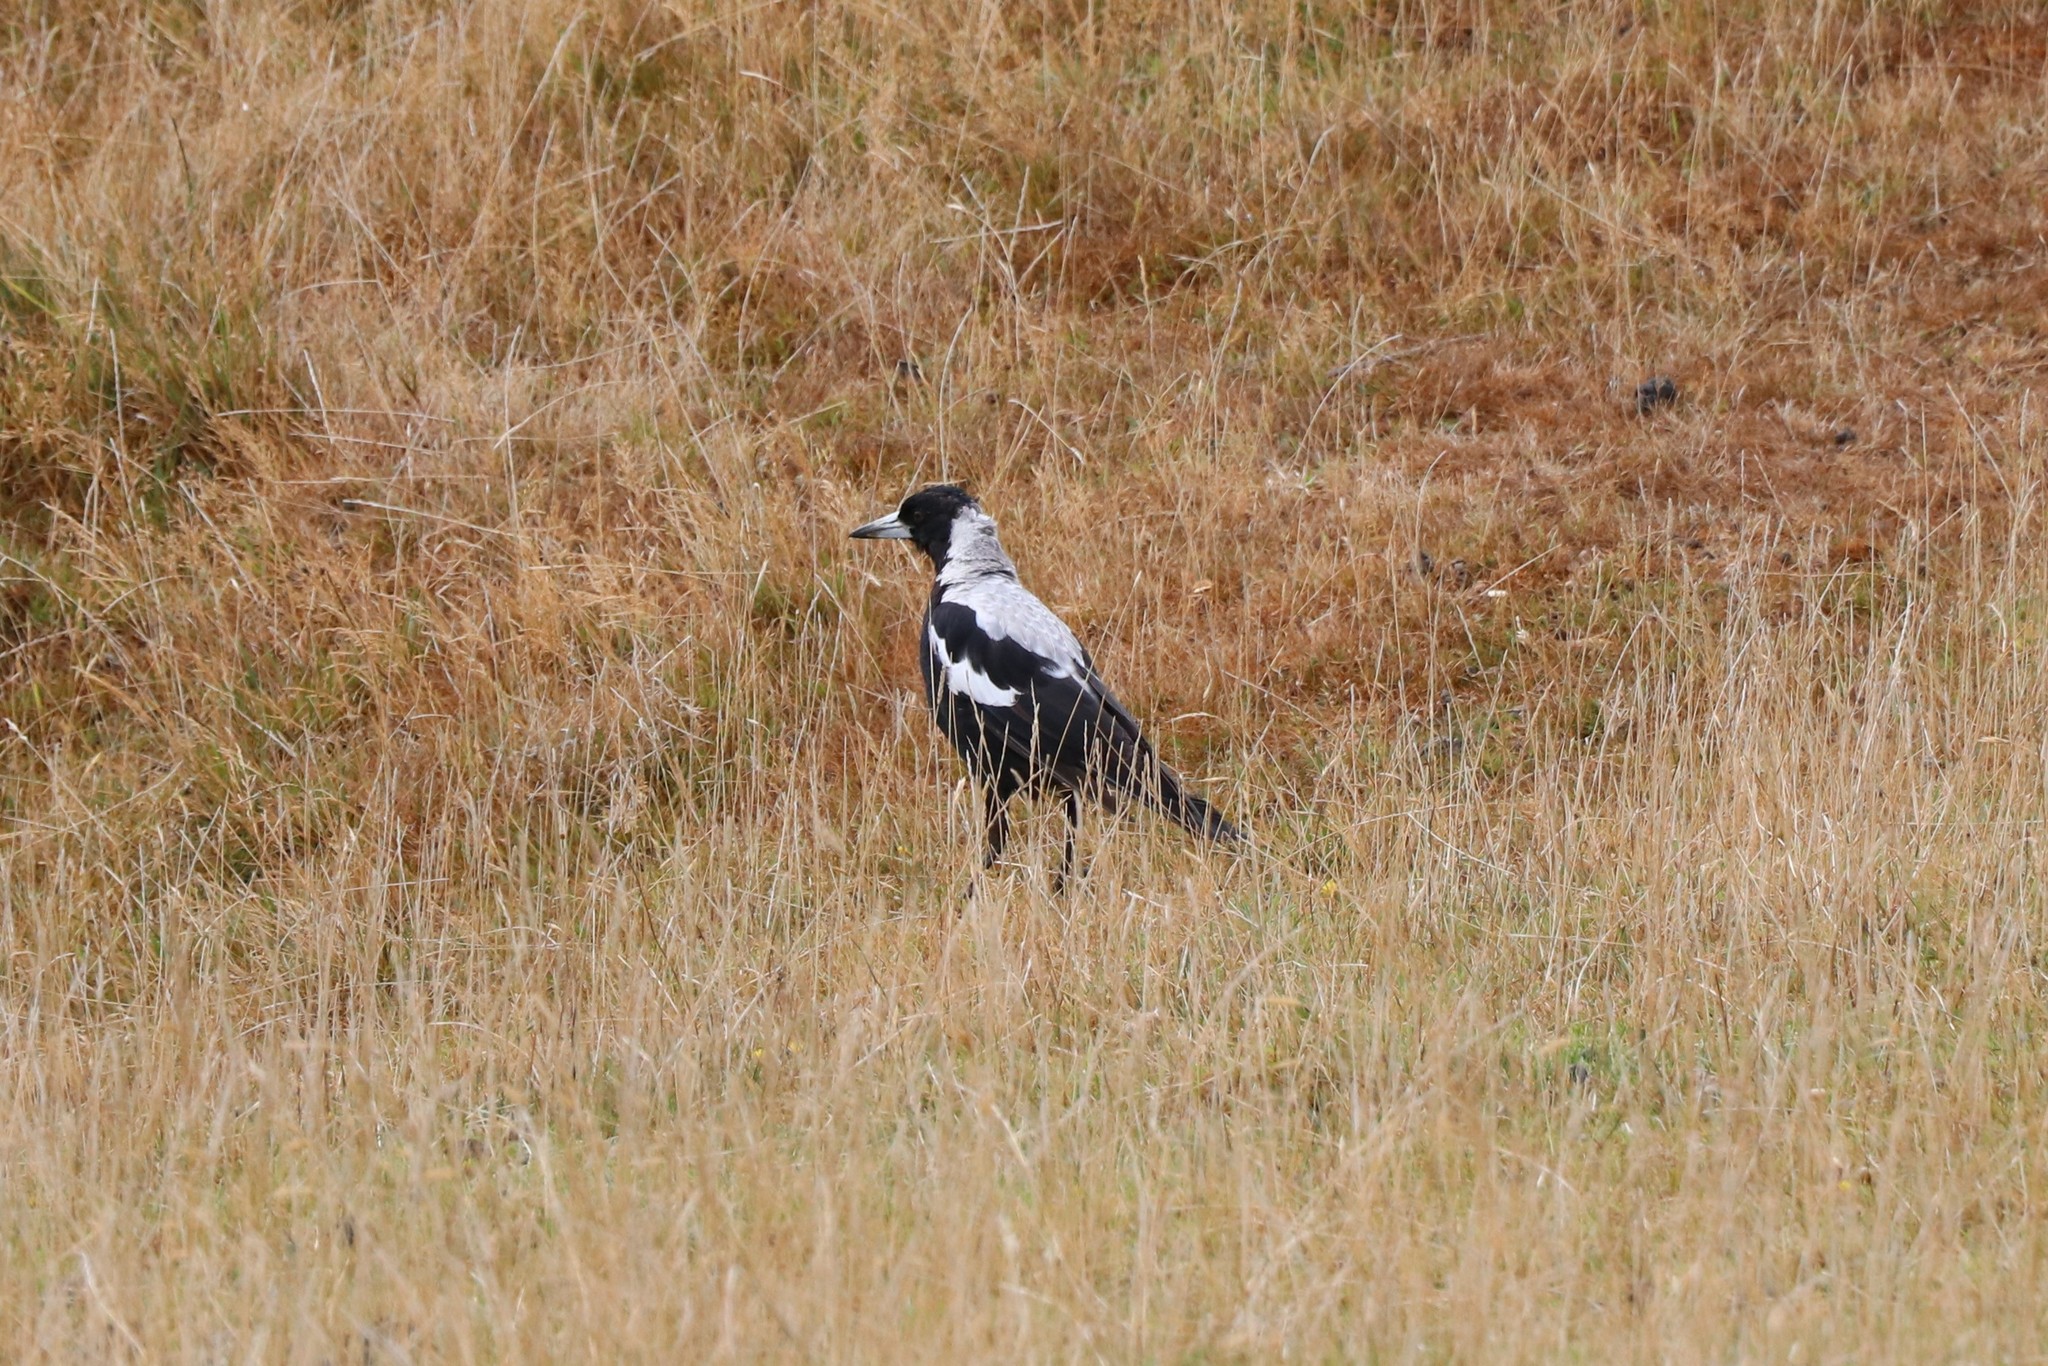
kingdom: Animalia
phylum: Chordata
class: Aves
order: Passeriformes
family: Cracticidae
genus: Gymnorhina
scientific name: Gymnorhina tibicen
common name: Australian magpie
